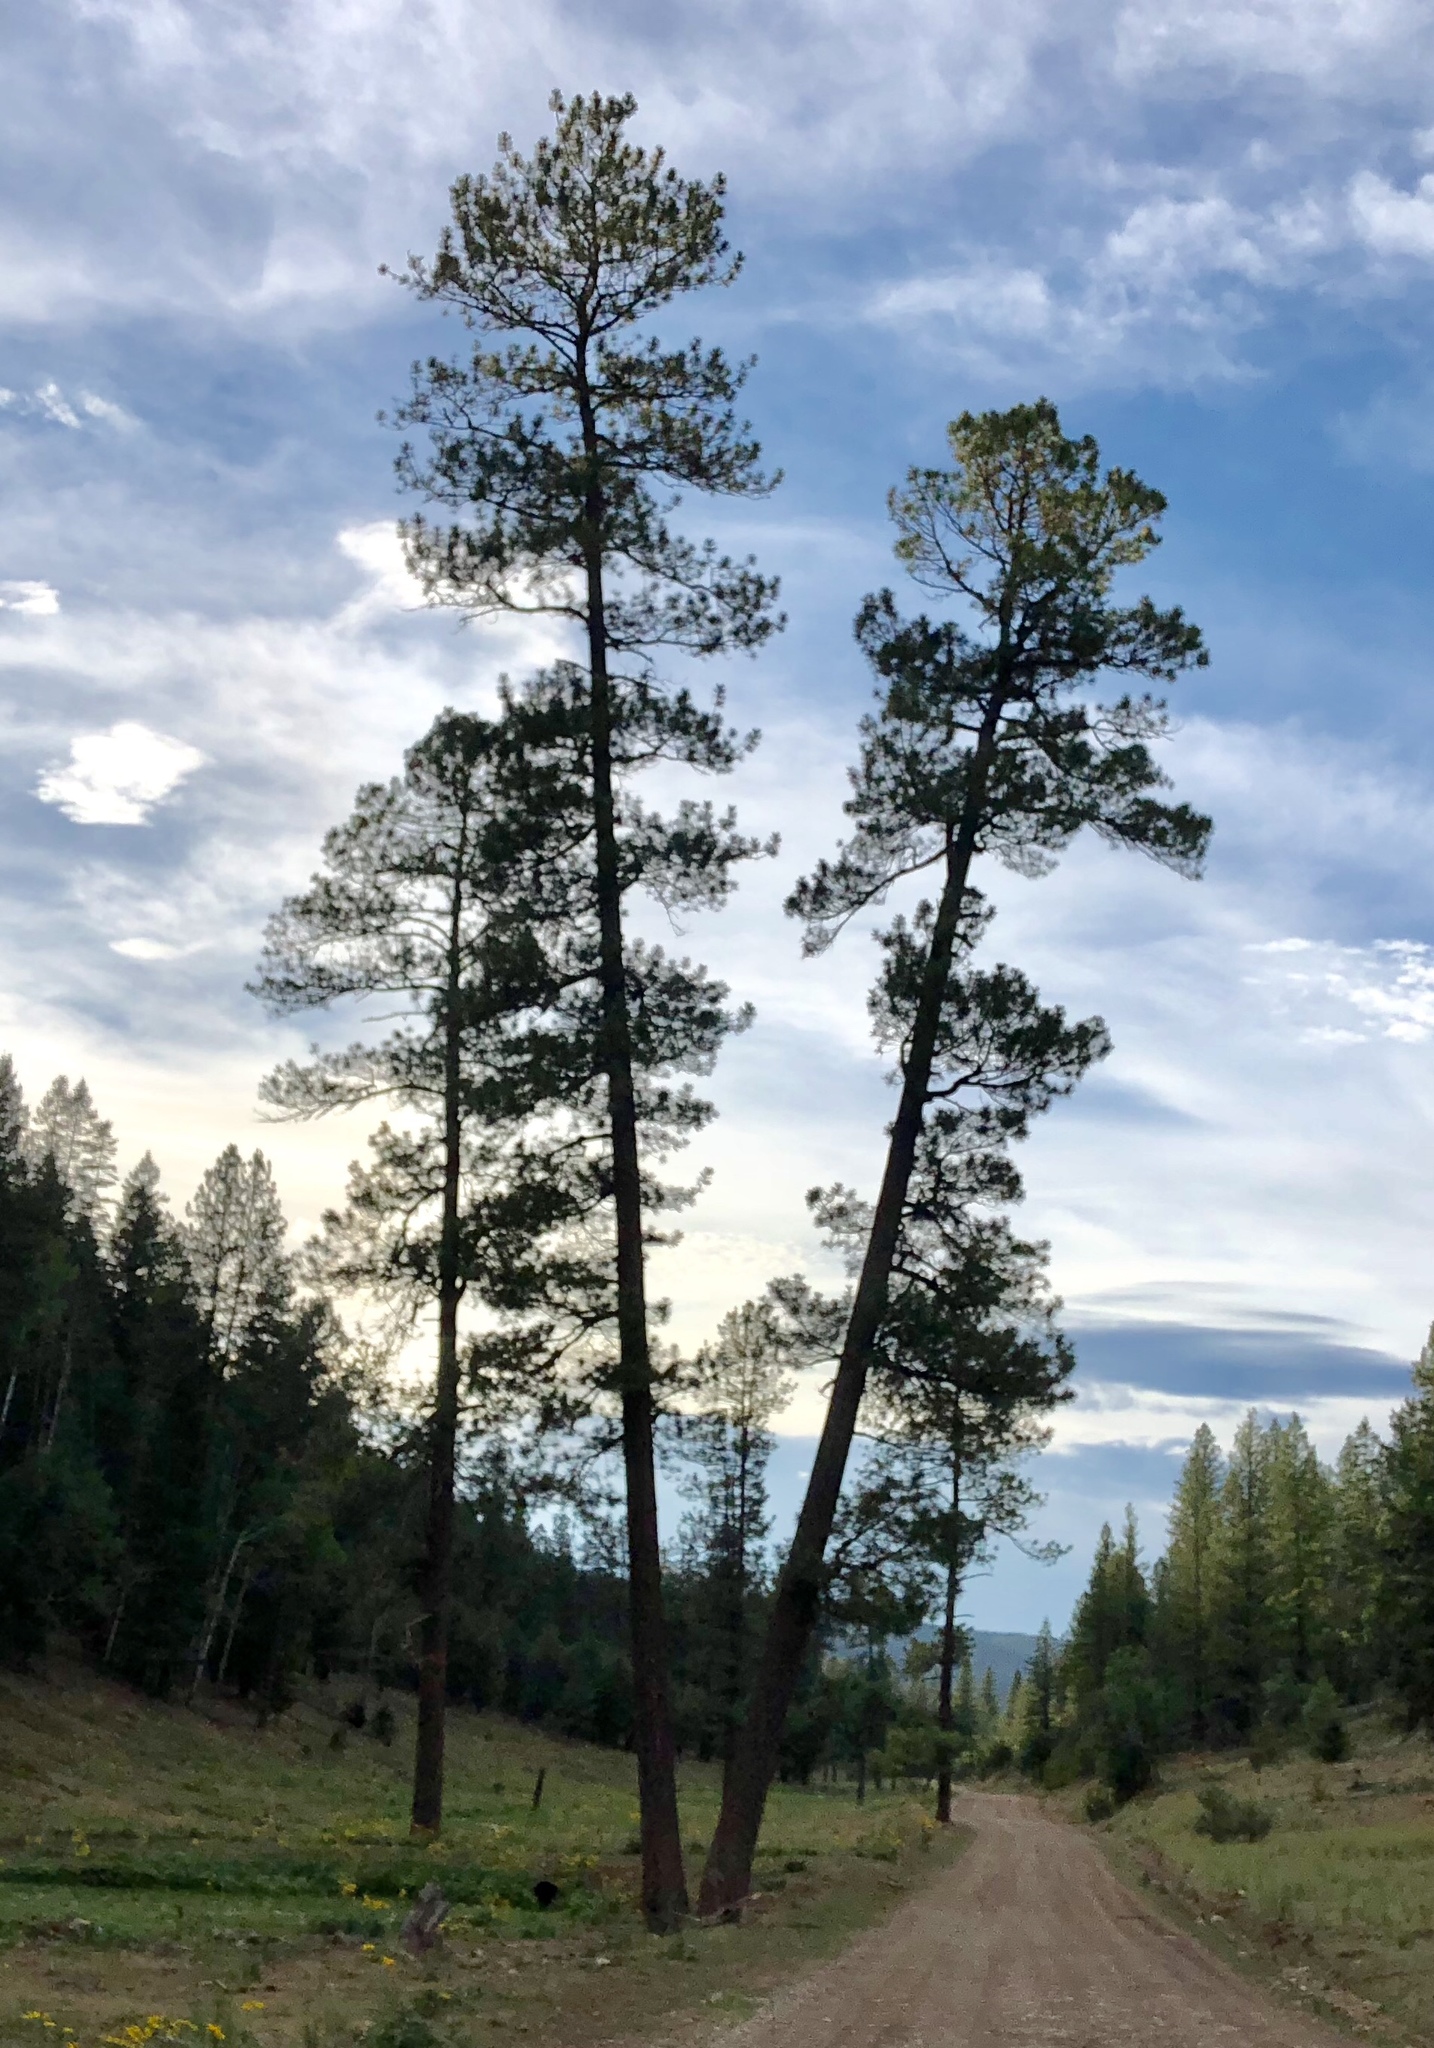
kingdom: Plantae
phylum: Tracheophyta
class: Pinopsida
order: Pinales
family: Pinaceae
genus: Pinus
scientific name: Pinus ponderosa
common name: Western yellow-pine
